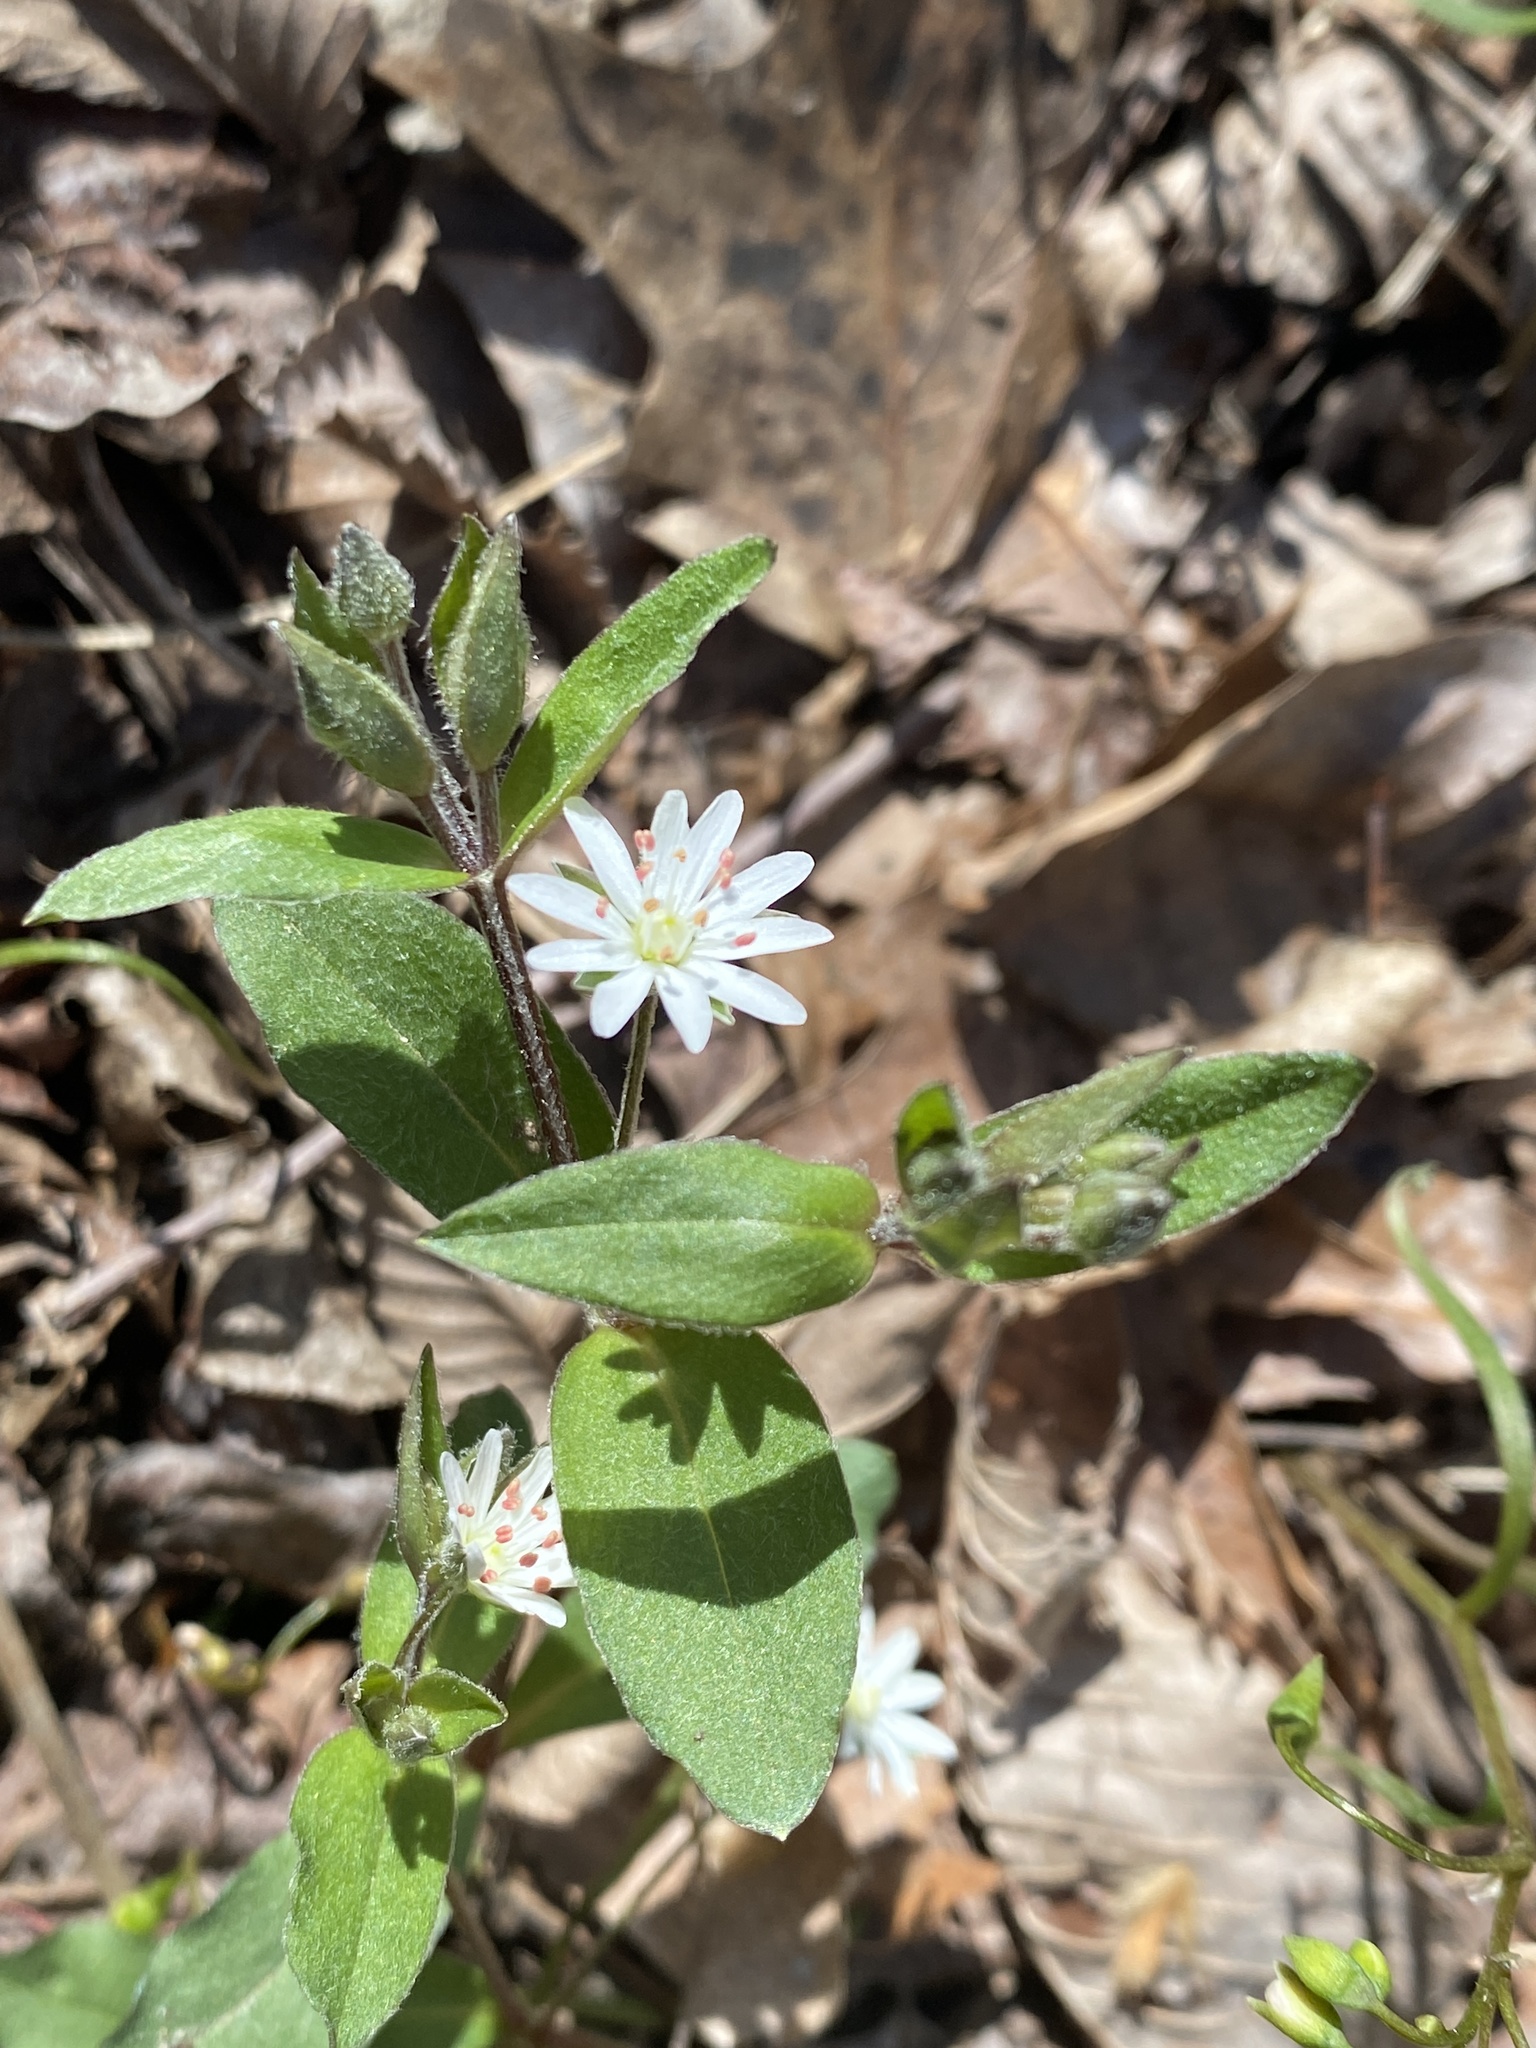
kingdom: Plantae
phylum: Tracheophyta
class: Magnoliopsida
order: Caryophyllales
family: Caryophyllaceae
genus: Stellaria
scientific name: Stellaria pubera
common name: Star chickweed
